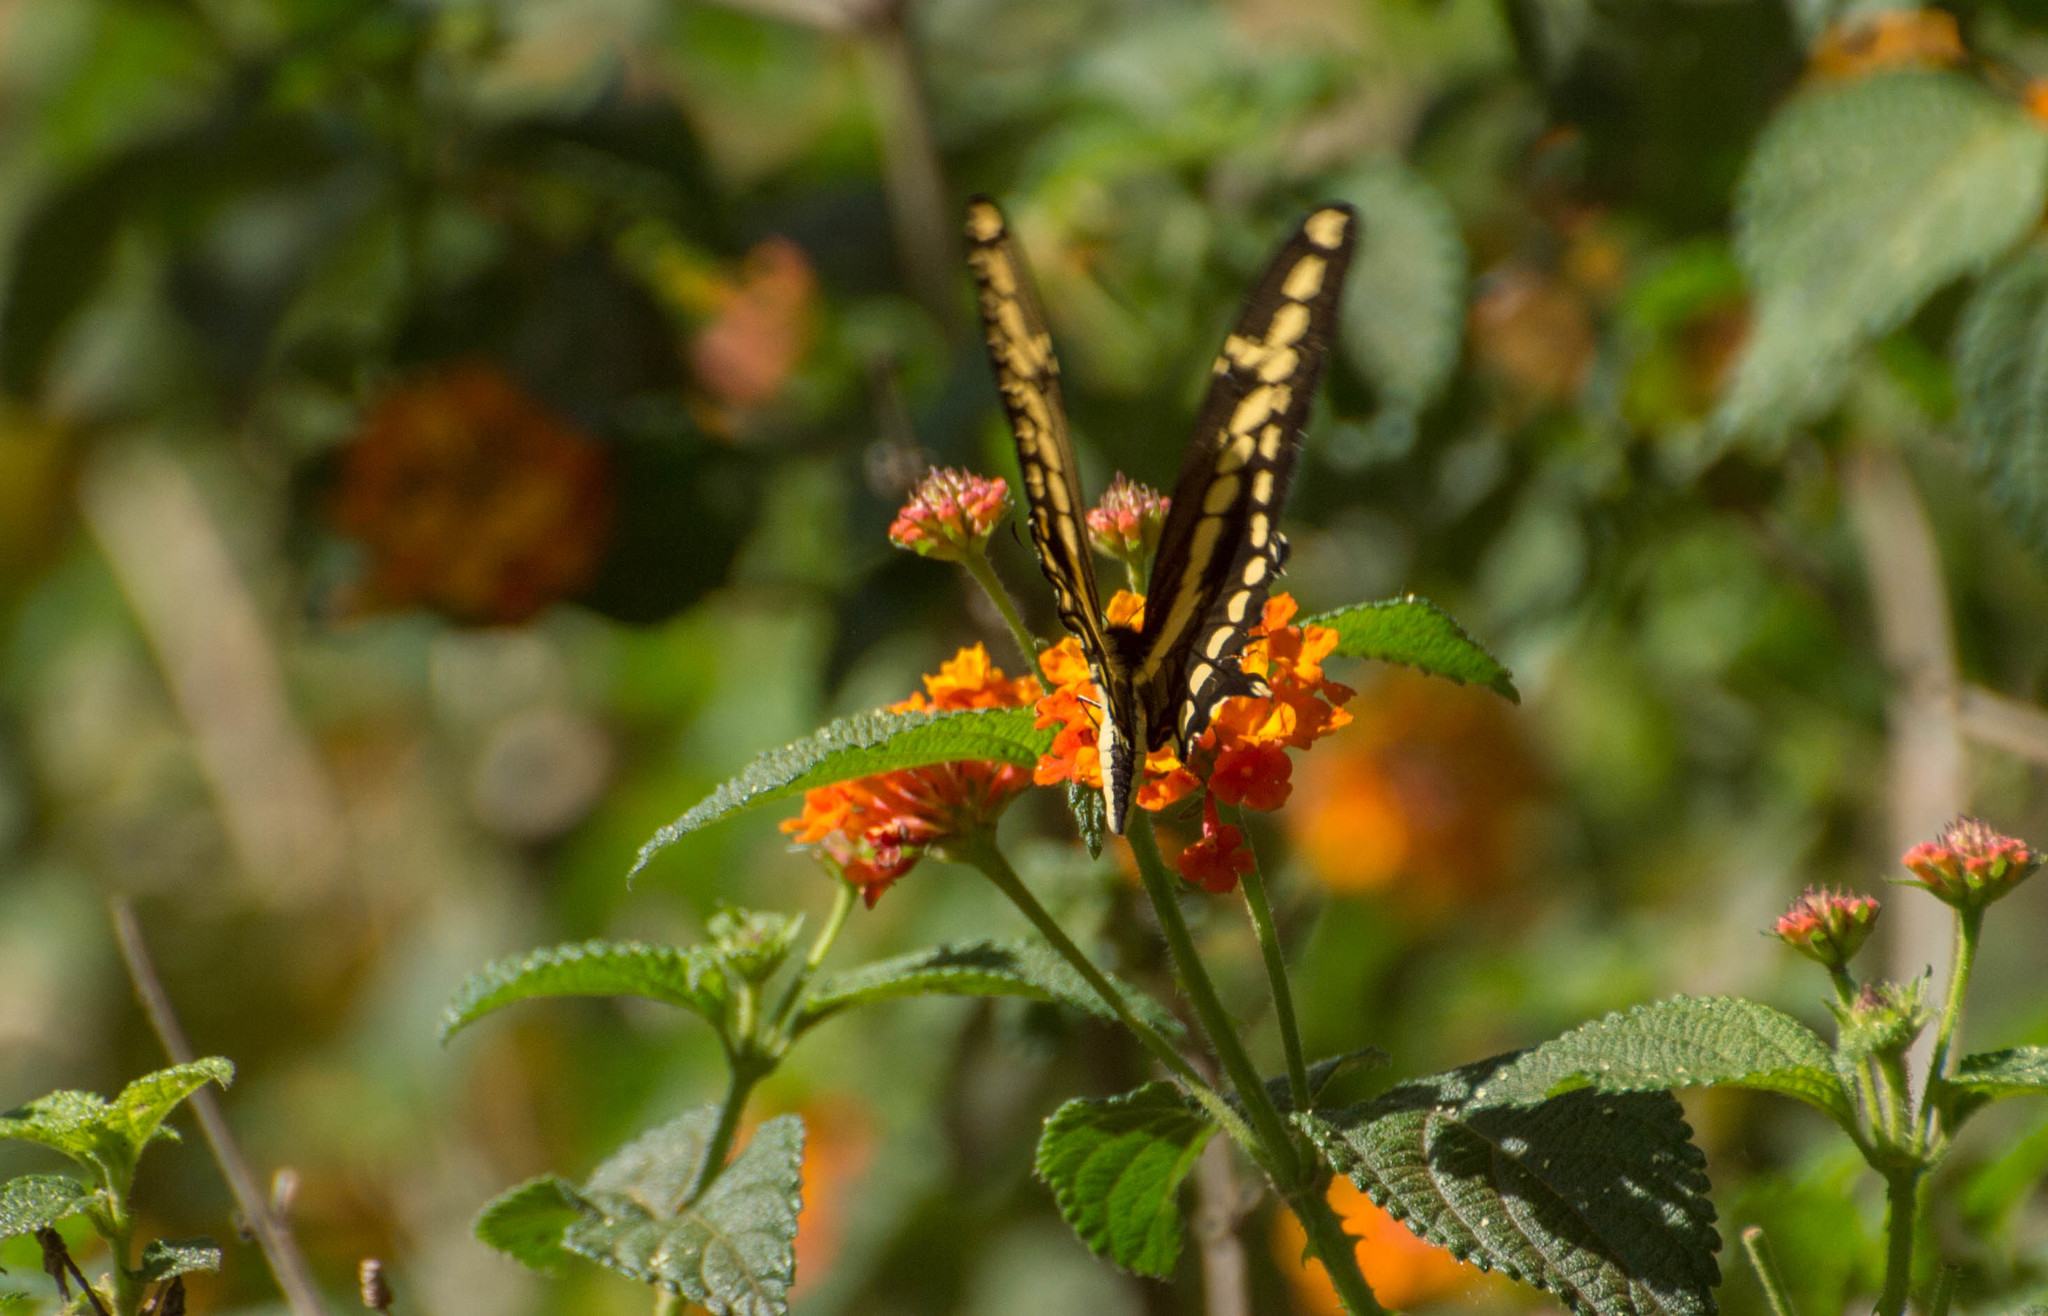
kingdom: Animalia
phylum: Arthropoda
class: Insecta
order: Lepidoptera
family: Papilionidae
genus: Papilio
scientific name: Papilio thoas
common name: King swallowtail
